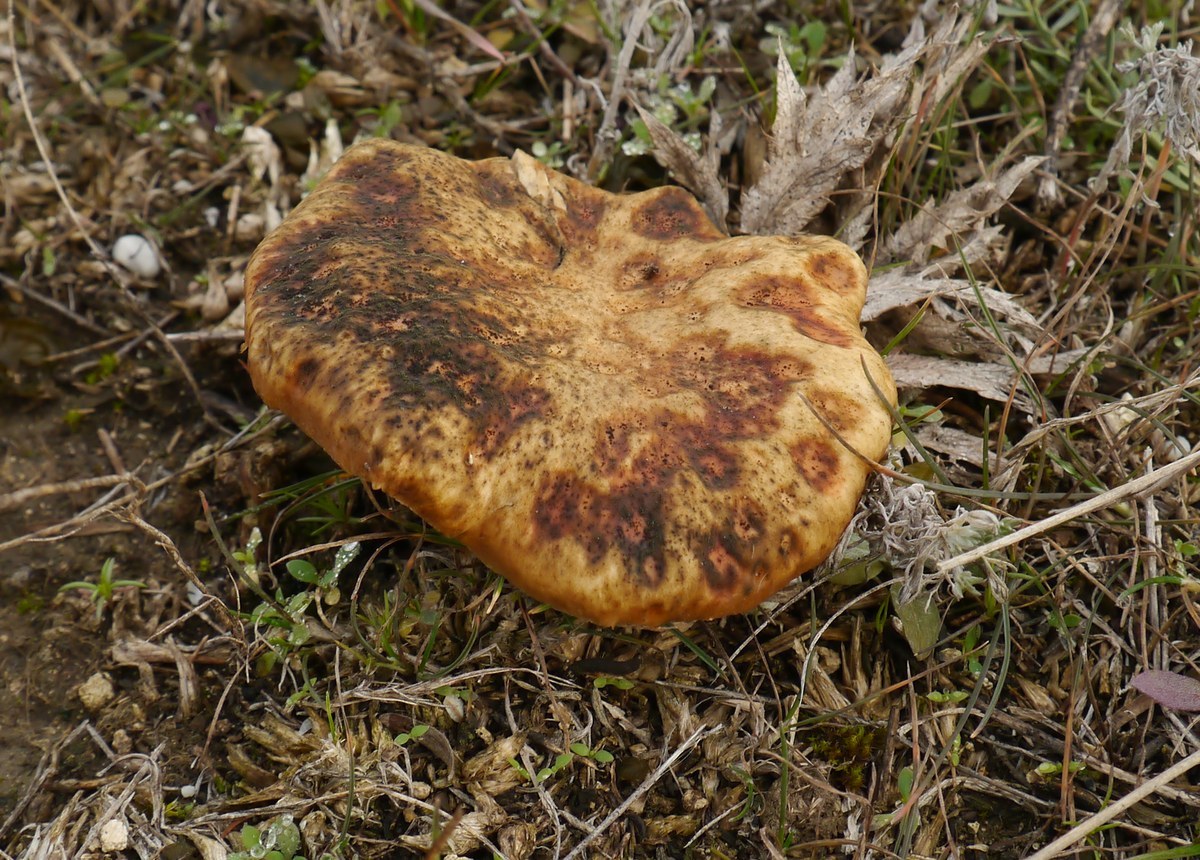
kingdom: Fungi
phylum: Basidiomycota
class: Agaricomycetes
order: Agaricales
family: Pleurotaceae
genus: Pleurotus
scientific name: Pleurotus eryngii
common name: King oyster
